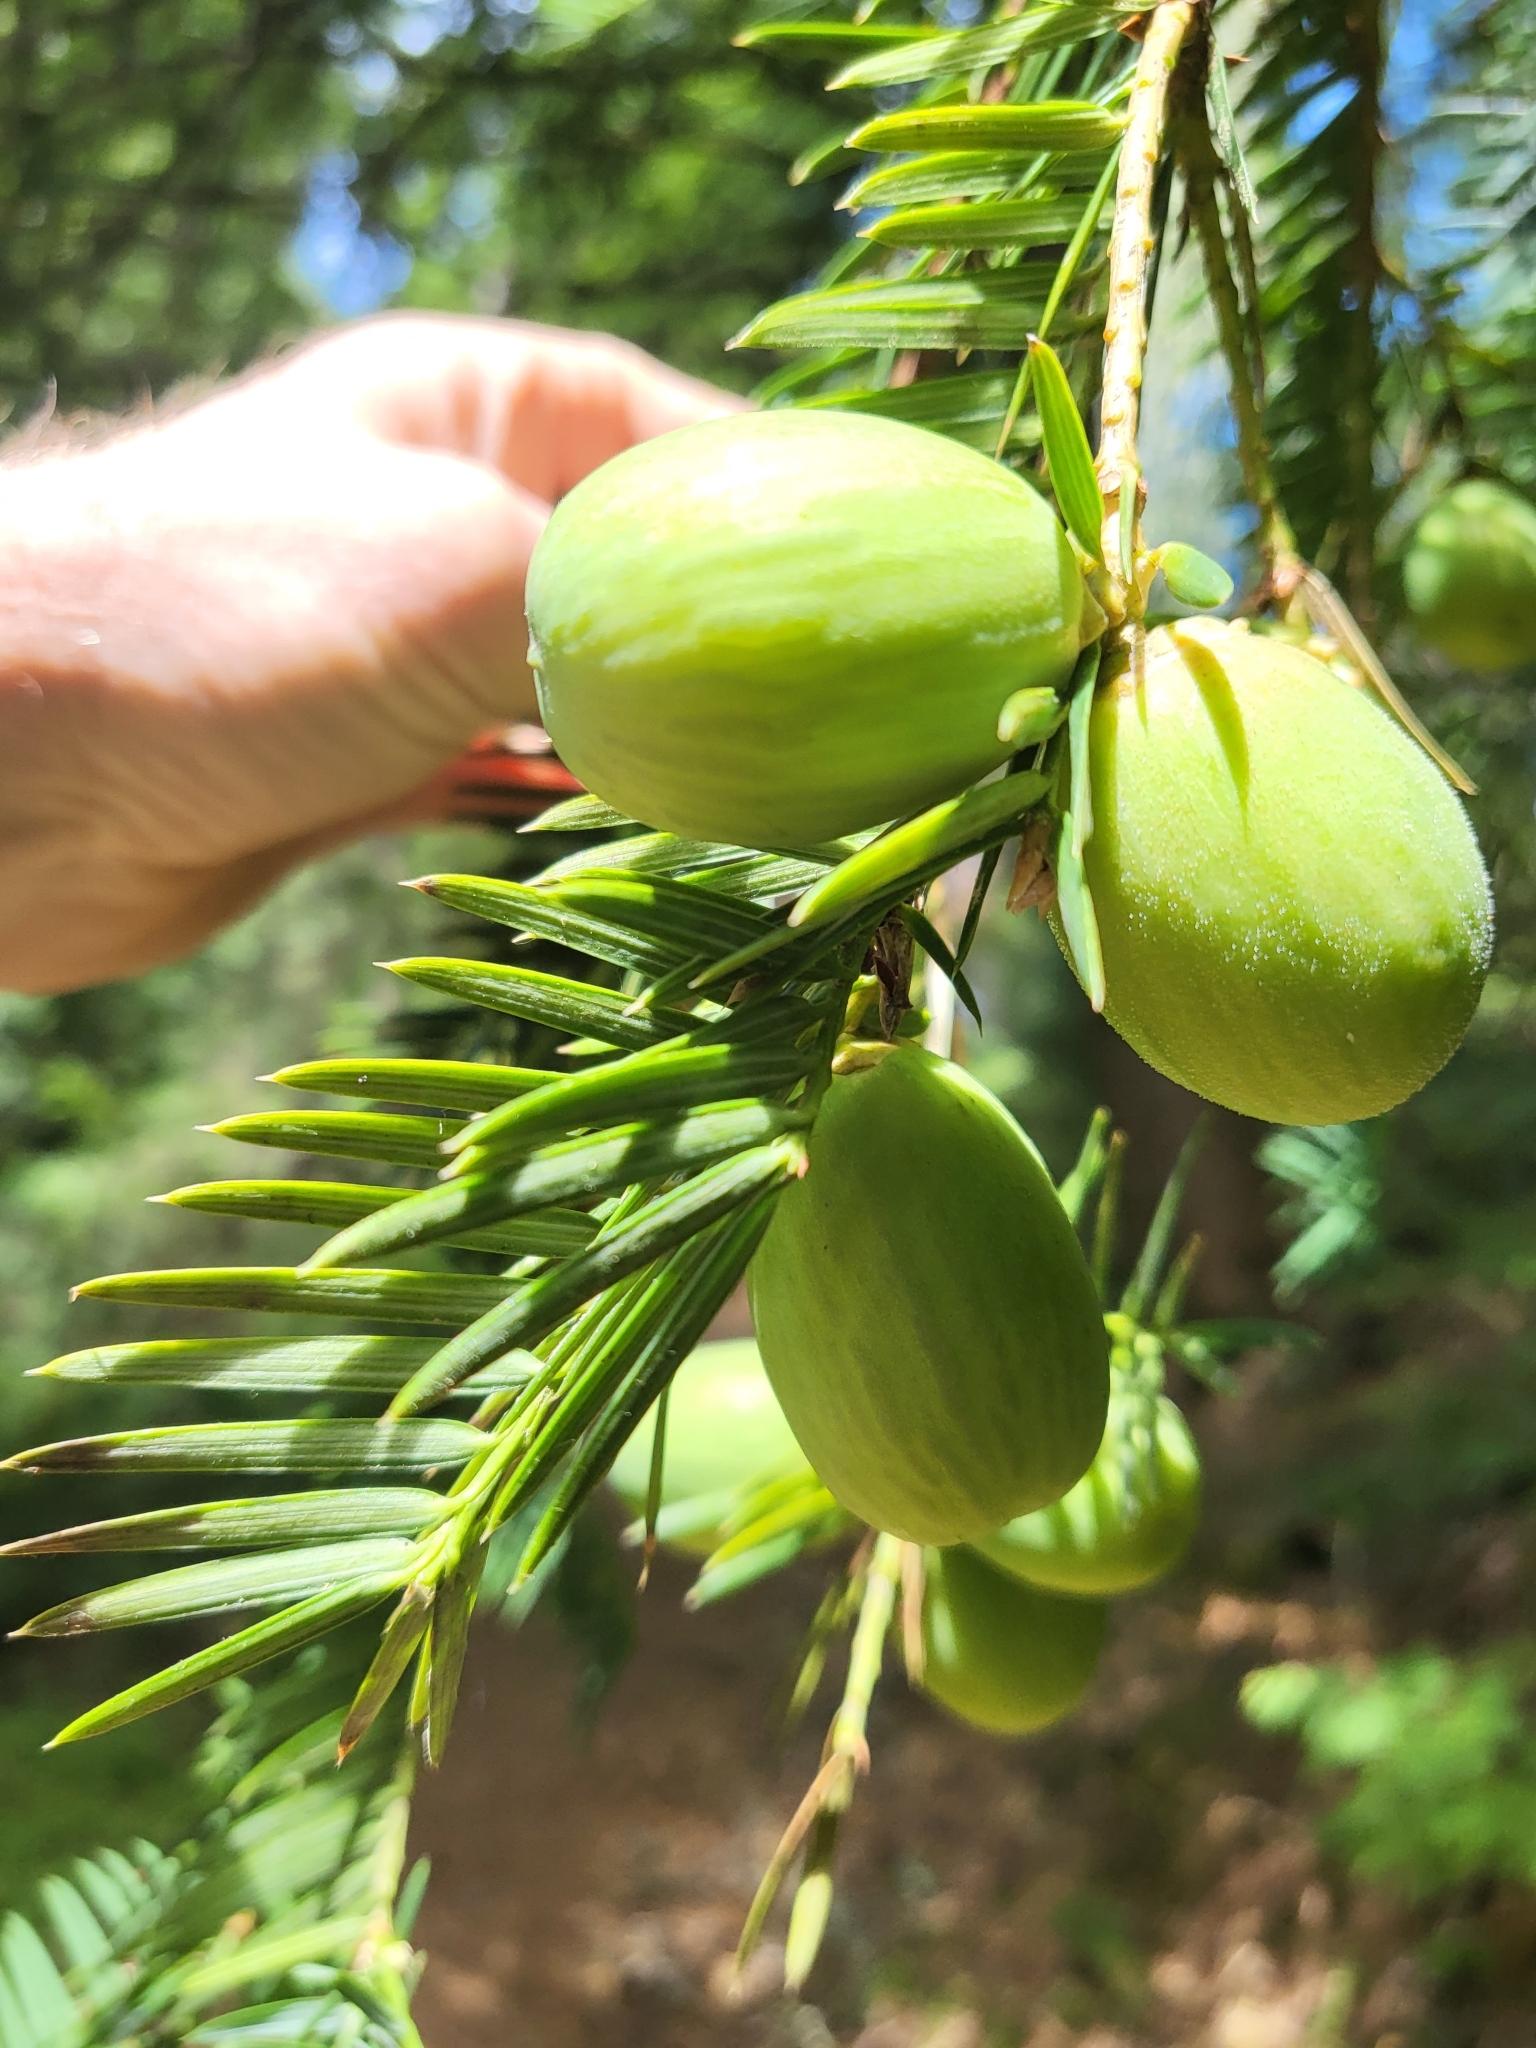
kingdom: Plantae
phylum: Tracheophyta
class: Pinopsida
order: Pinales
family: Taxaceae
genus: Torreya
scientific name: Torreya californica
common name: California torreya
